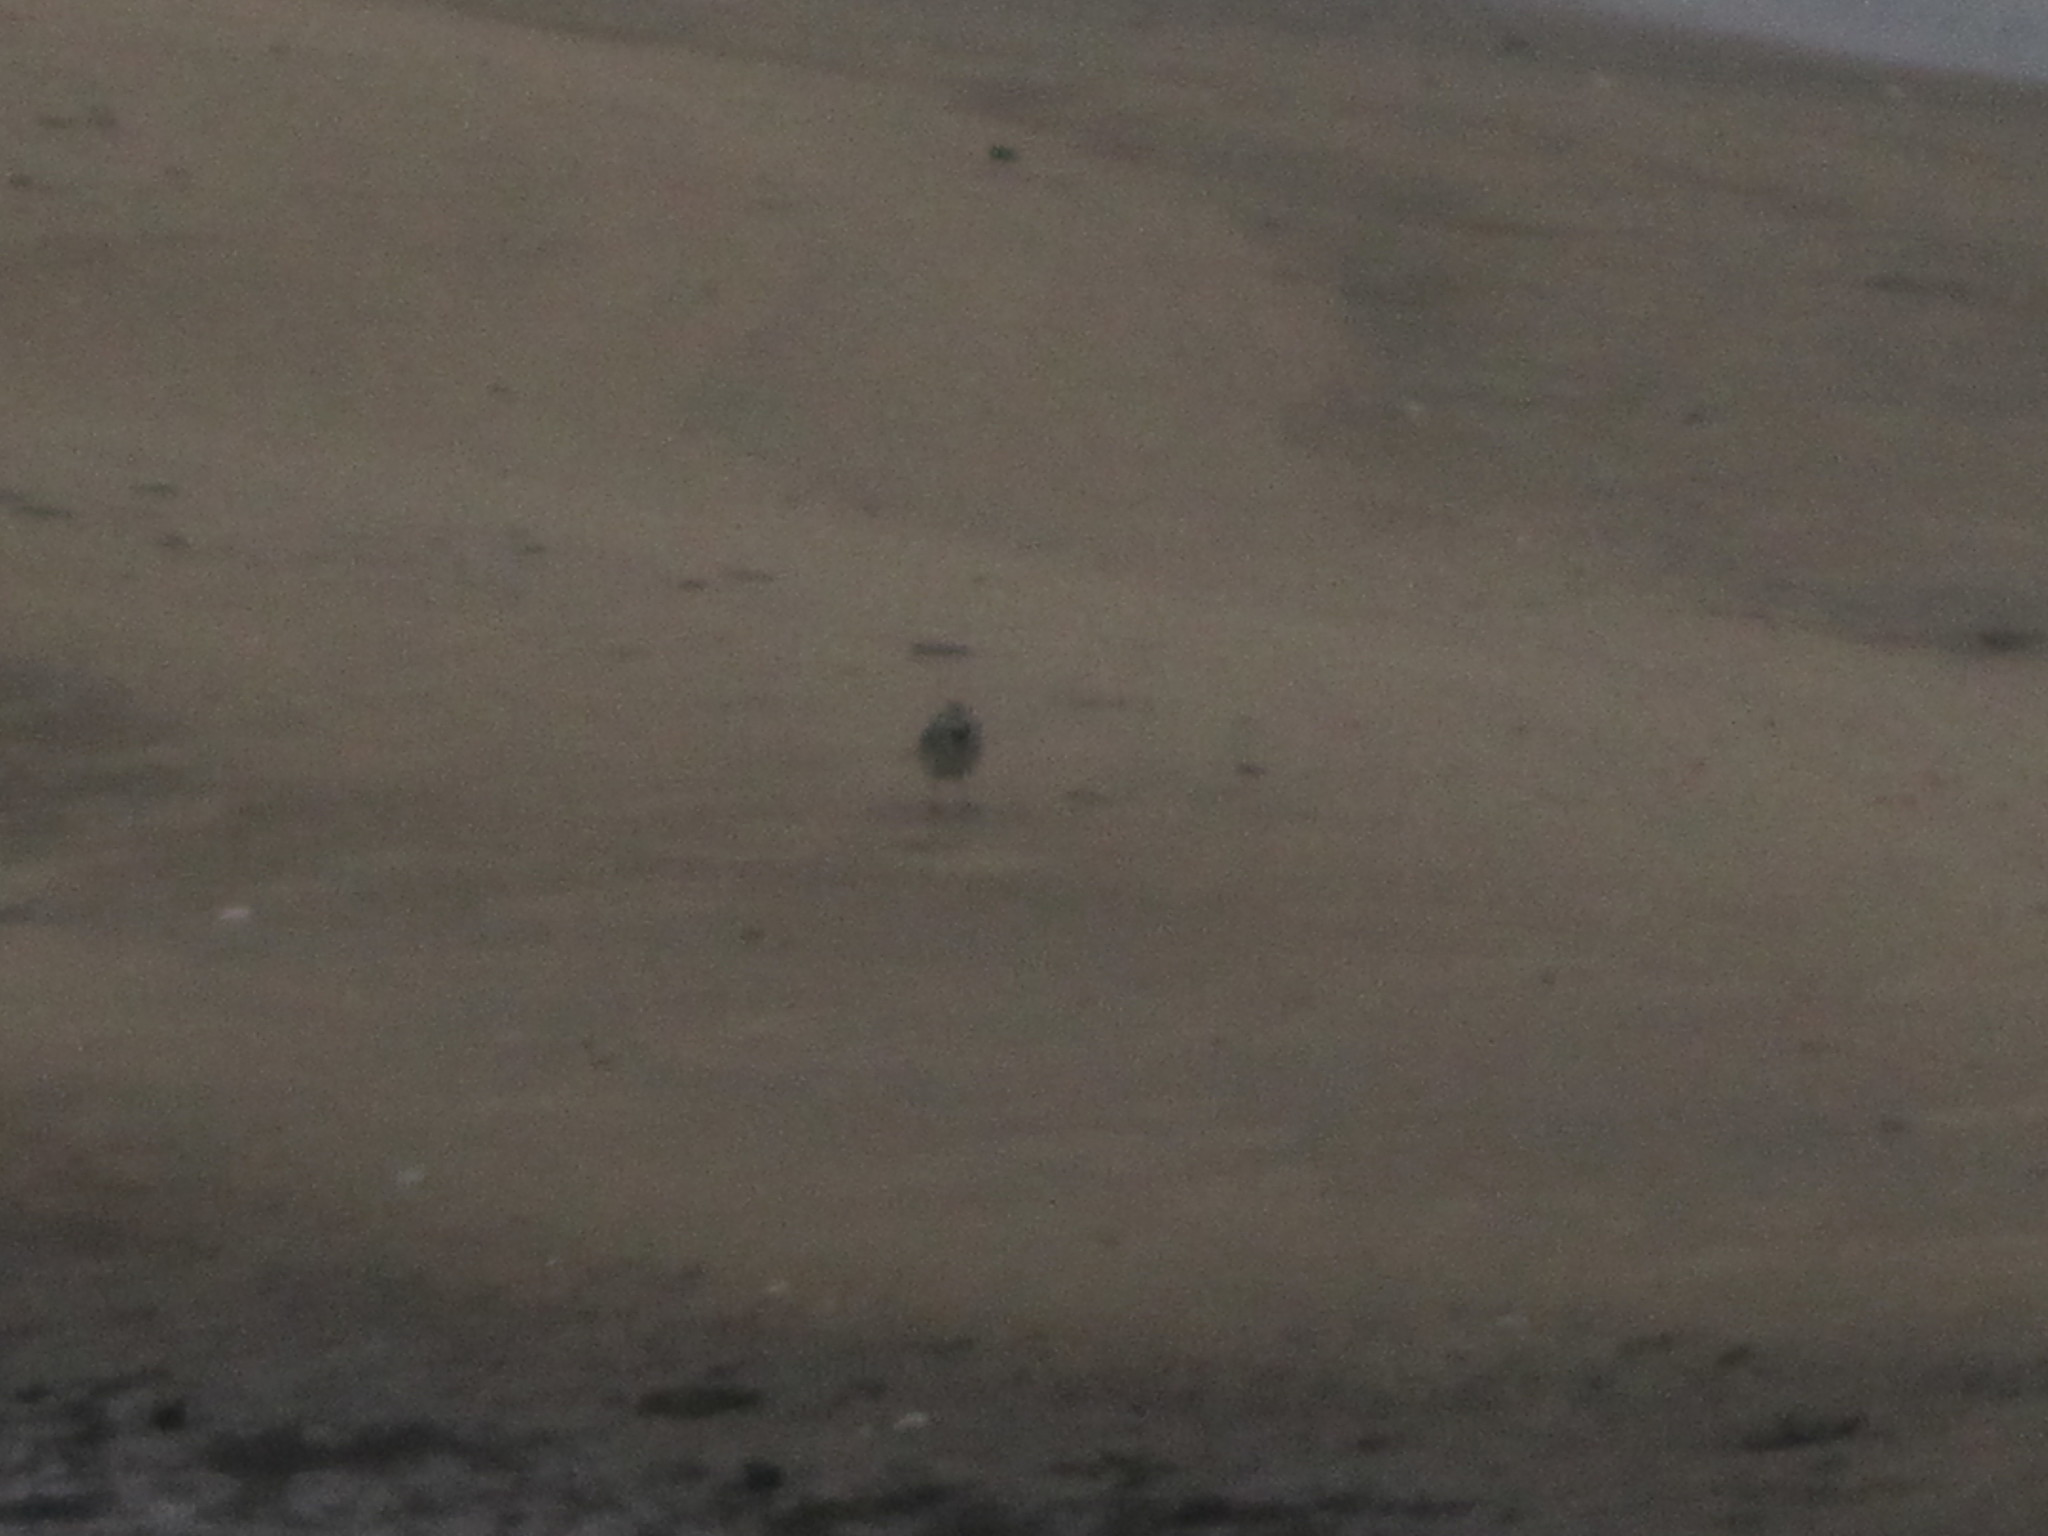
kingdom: Animalia
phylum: Chordata
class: Aves
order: Passeriformes
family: Motacillidae
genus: Motacilla
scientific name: Motacilla alba
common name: White wagtail
